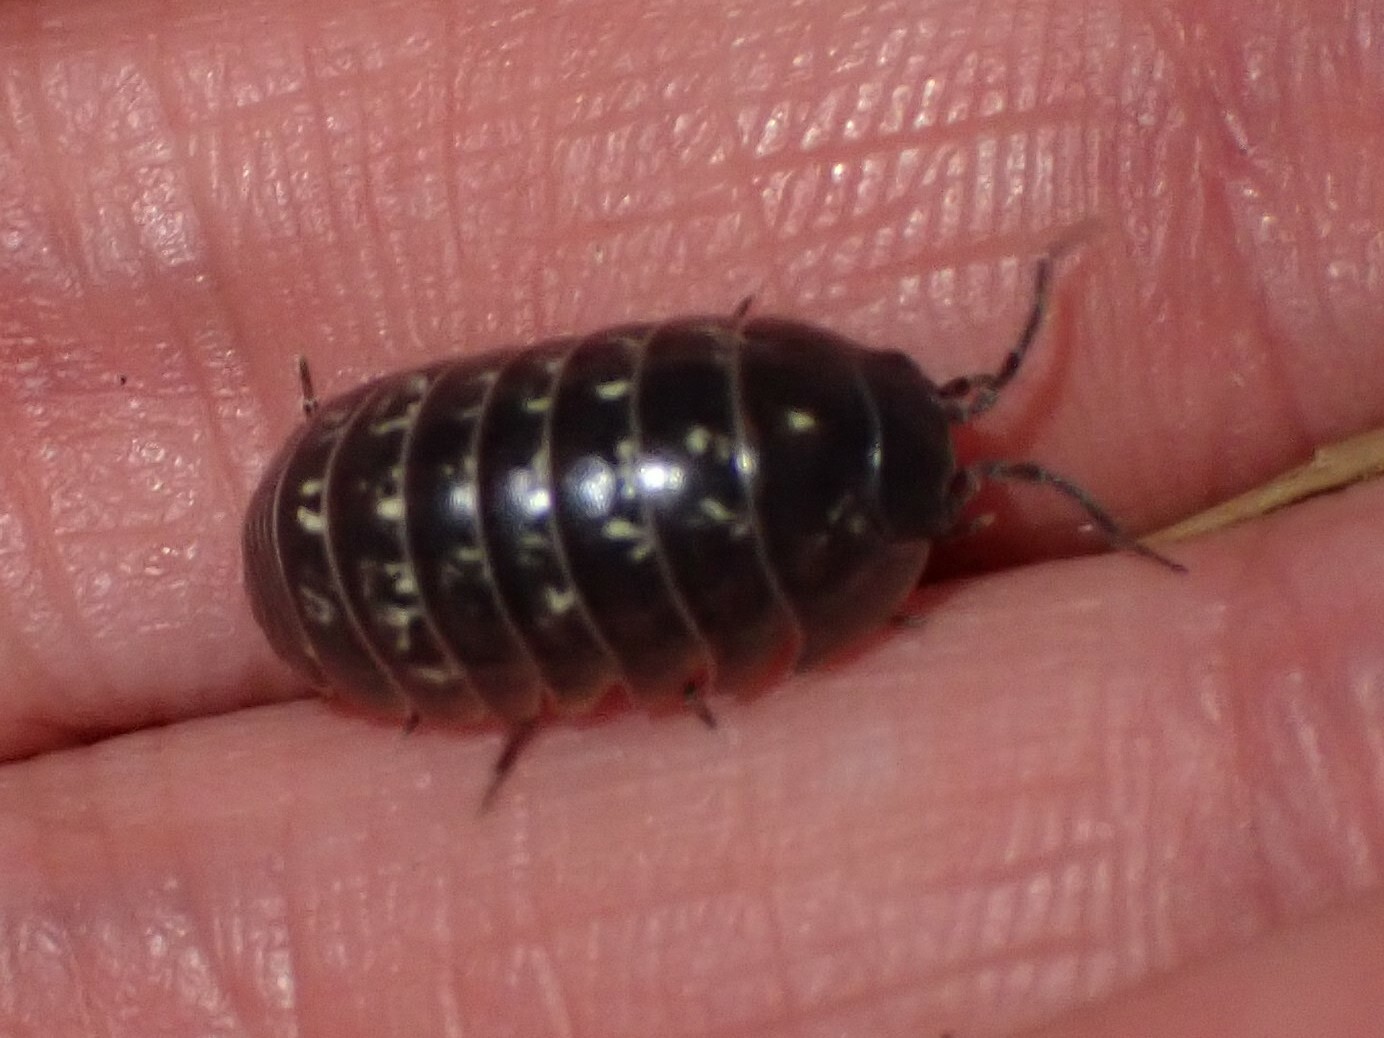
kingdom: Animalia
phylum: Arthropoda
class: Malacostraca
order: Isopoda
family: Armadillidiidae
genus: Armadillidium
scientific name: Armadillidium vulgare
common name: Common pill woodlouse
